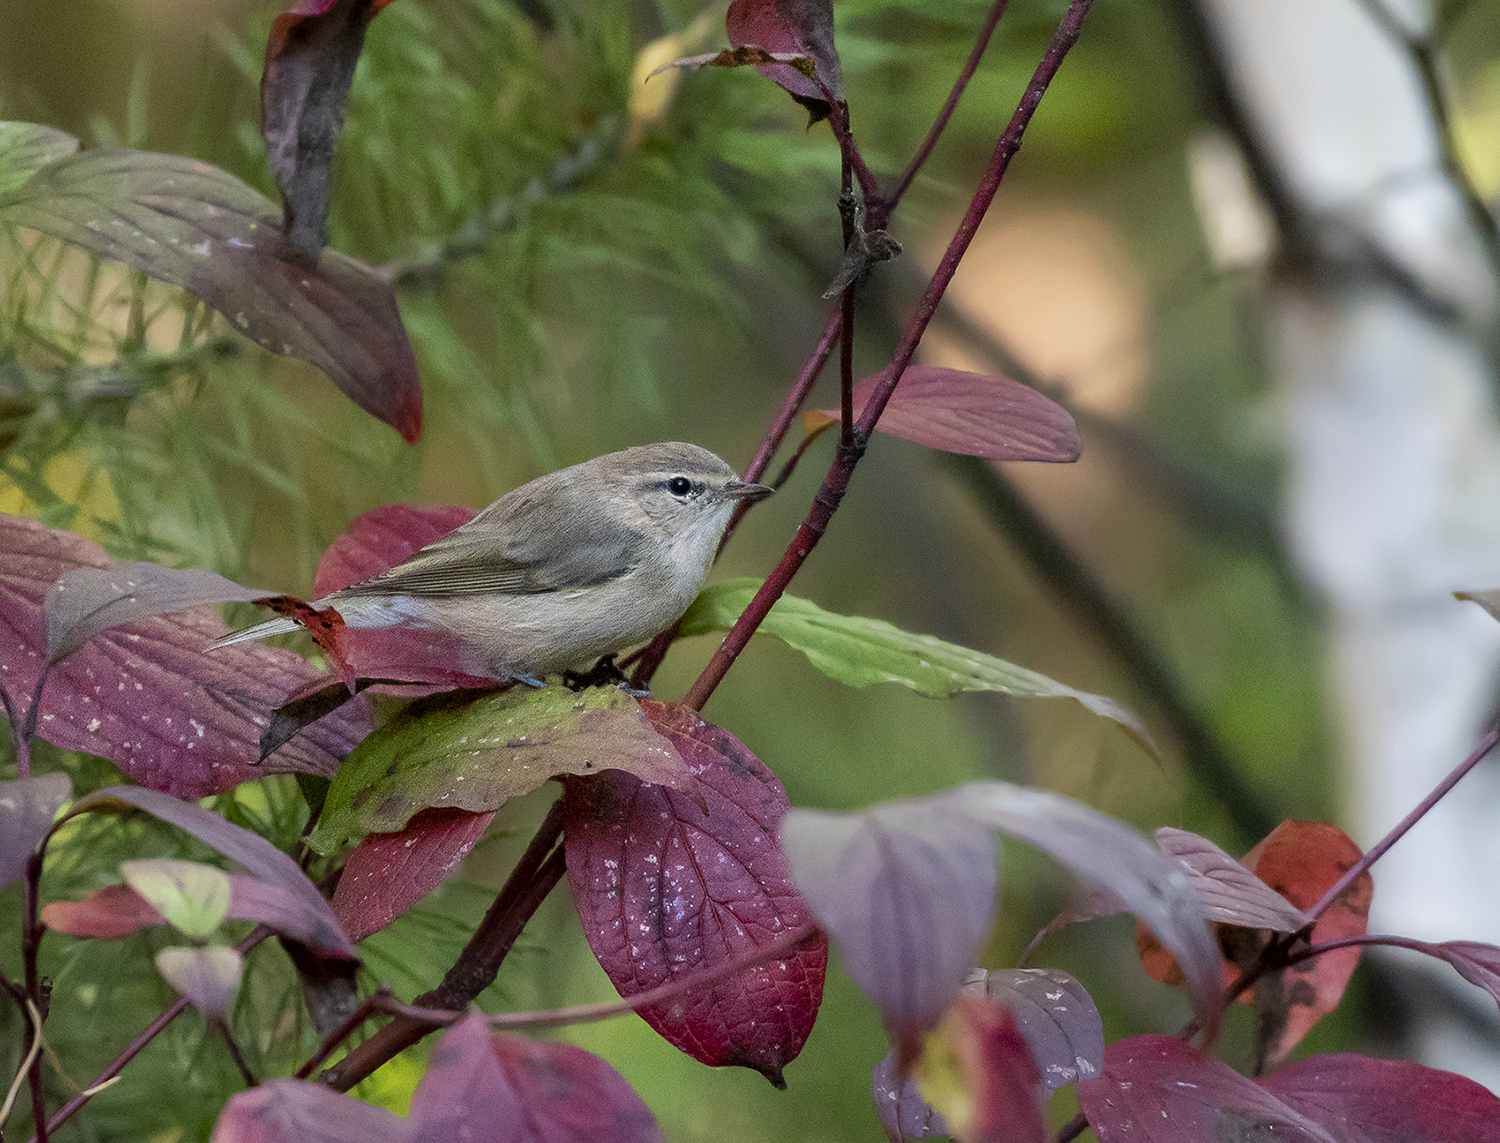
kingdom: Animalia
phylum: Chordata
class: Aves
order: Passeriformes
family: Phylloscopidae
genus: Phylloscopus
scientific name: Phylloscopus collybita
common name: Common chiffchaff
